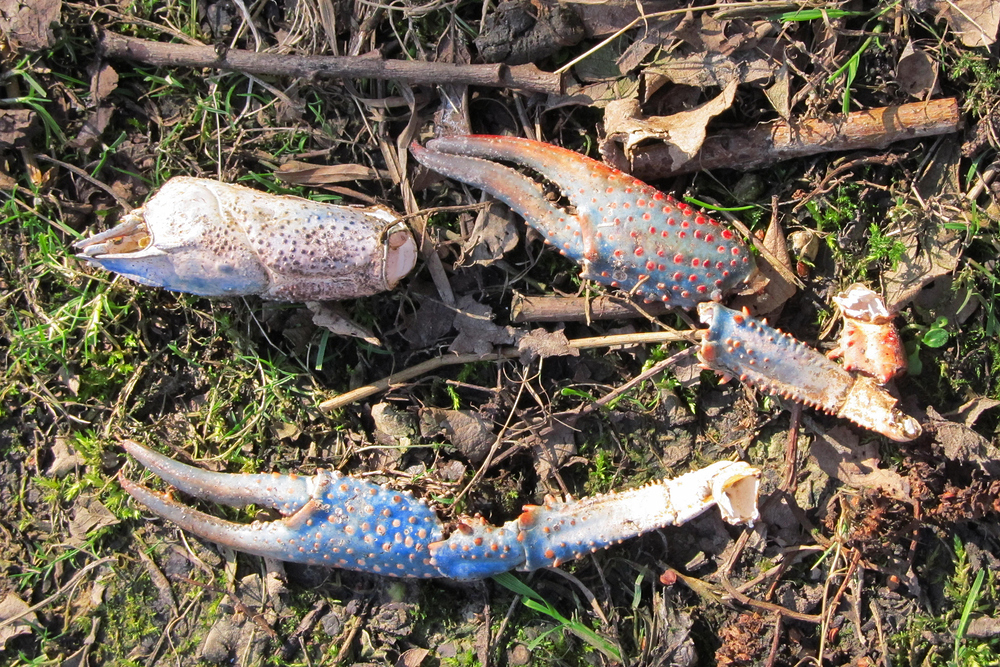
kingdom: Animalia
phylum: Arthropoda
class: Malacostraca
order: Decapoda
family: Cambaridae
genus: Procambarus
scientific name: Procambarus clarkii
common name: Red swamp crayfish
